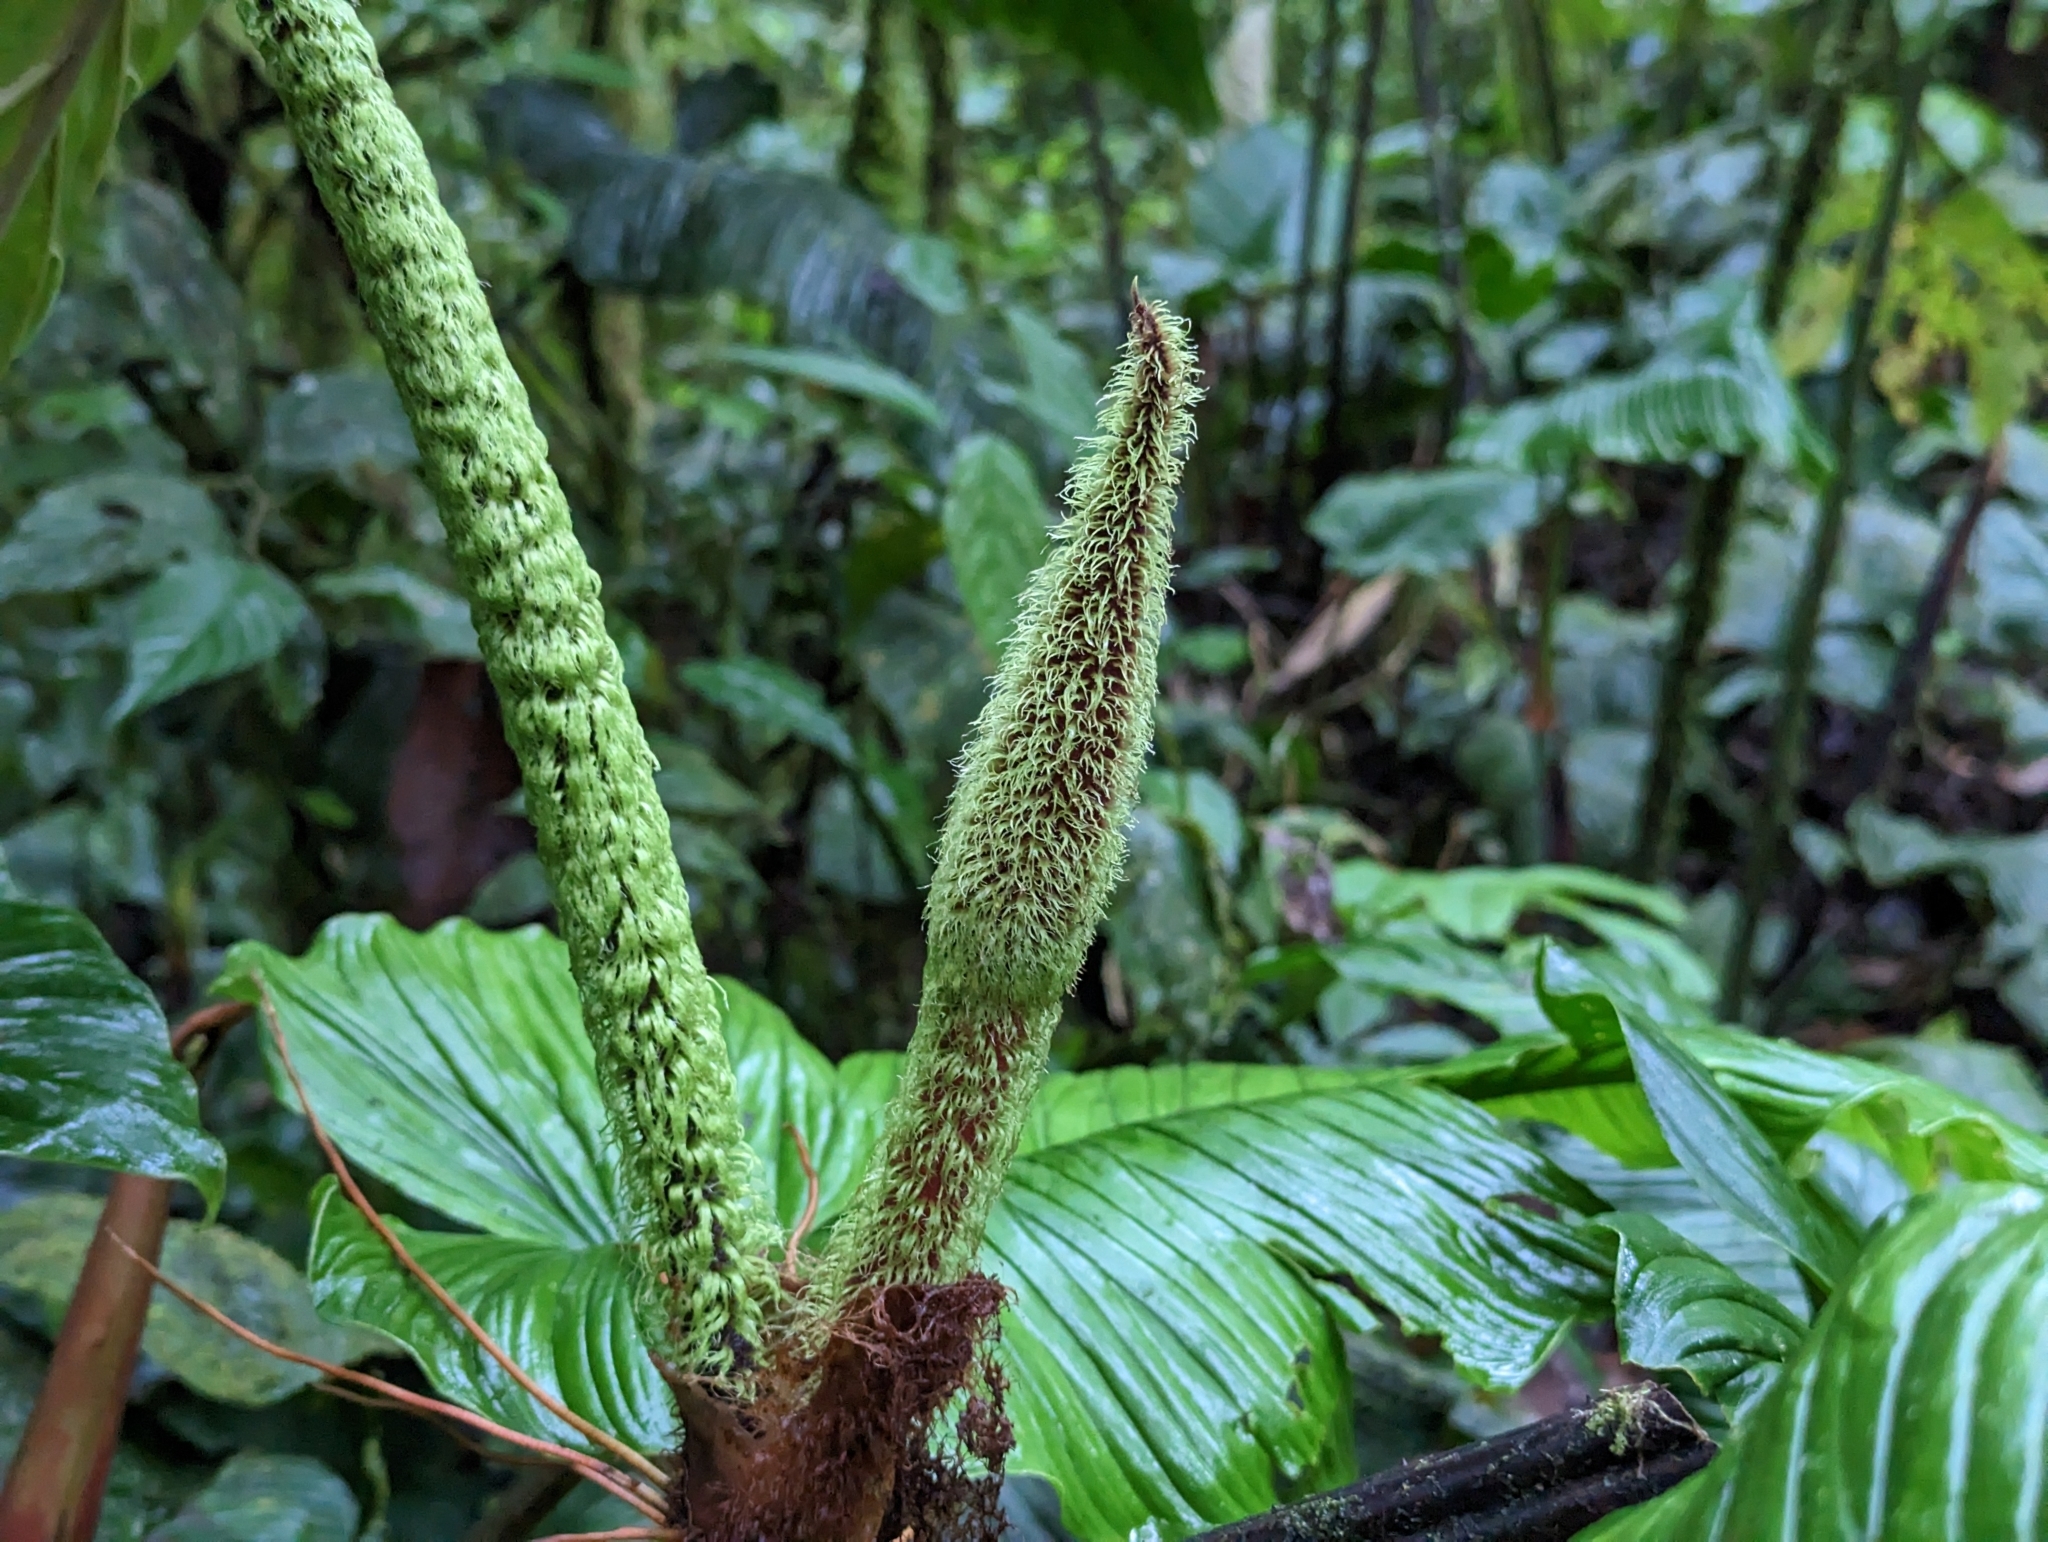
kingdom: Plantae
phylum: Tracheophyta
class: Liliopsida
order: Alismatales
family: Araceae
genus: Philodendron
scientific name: Philodendron fibrosum
